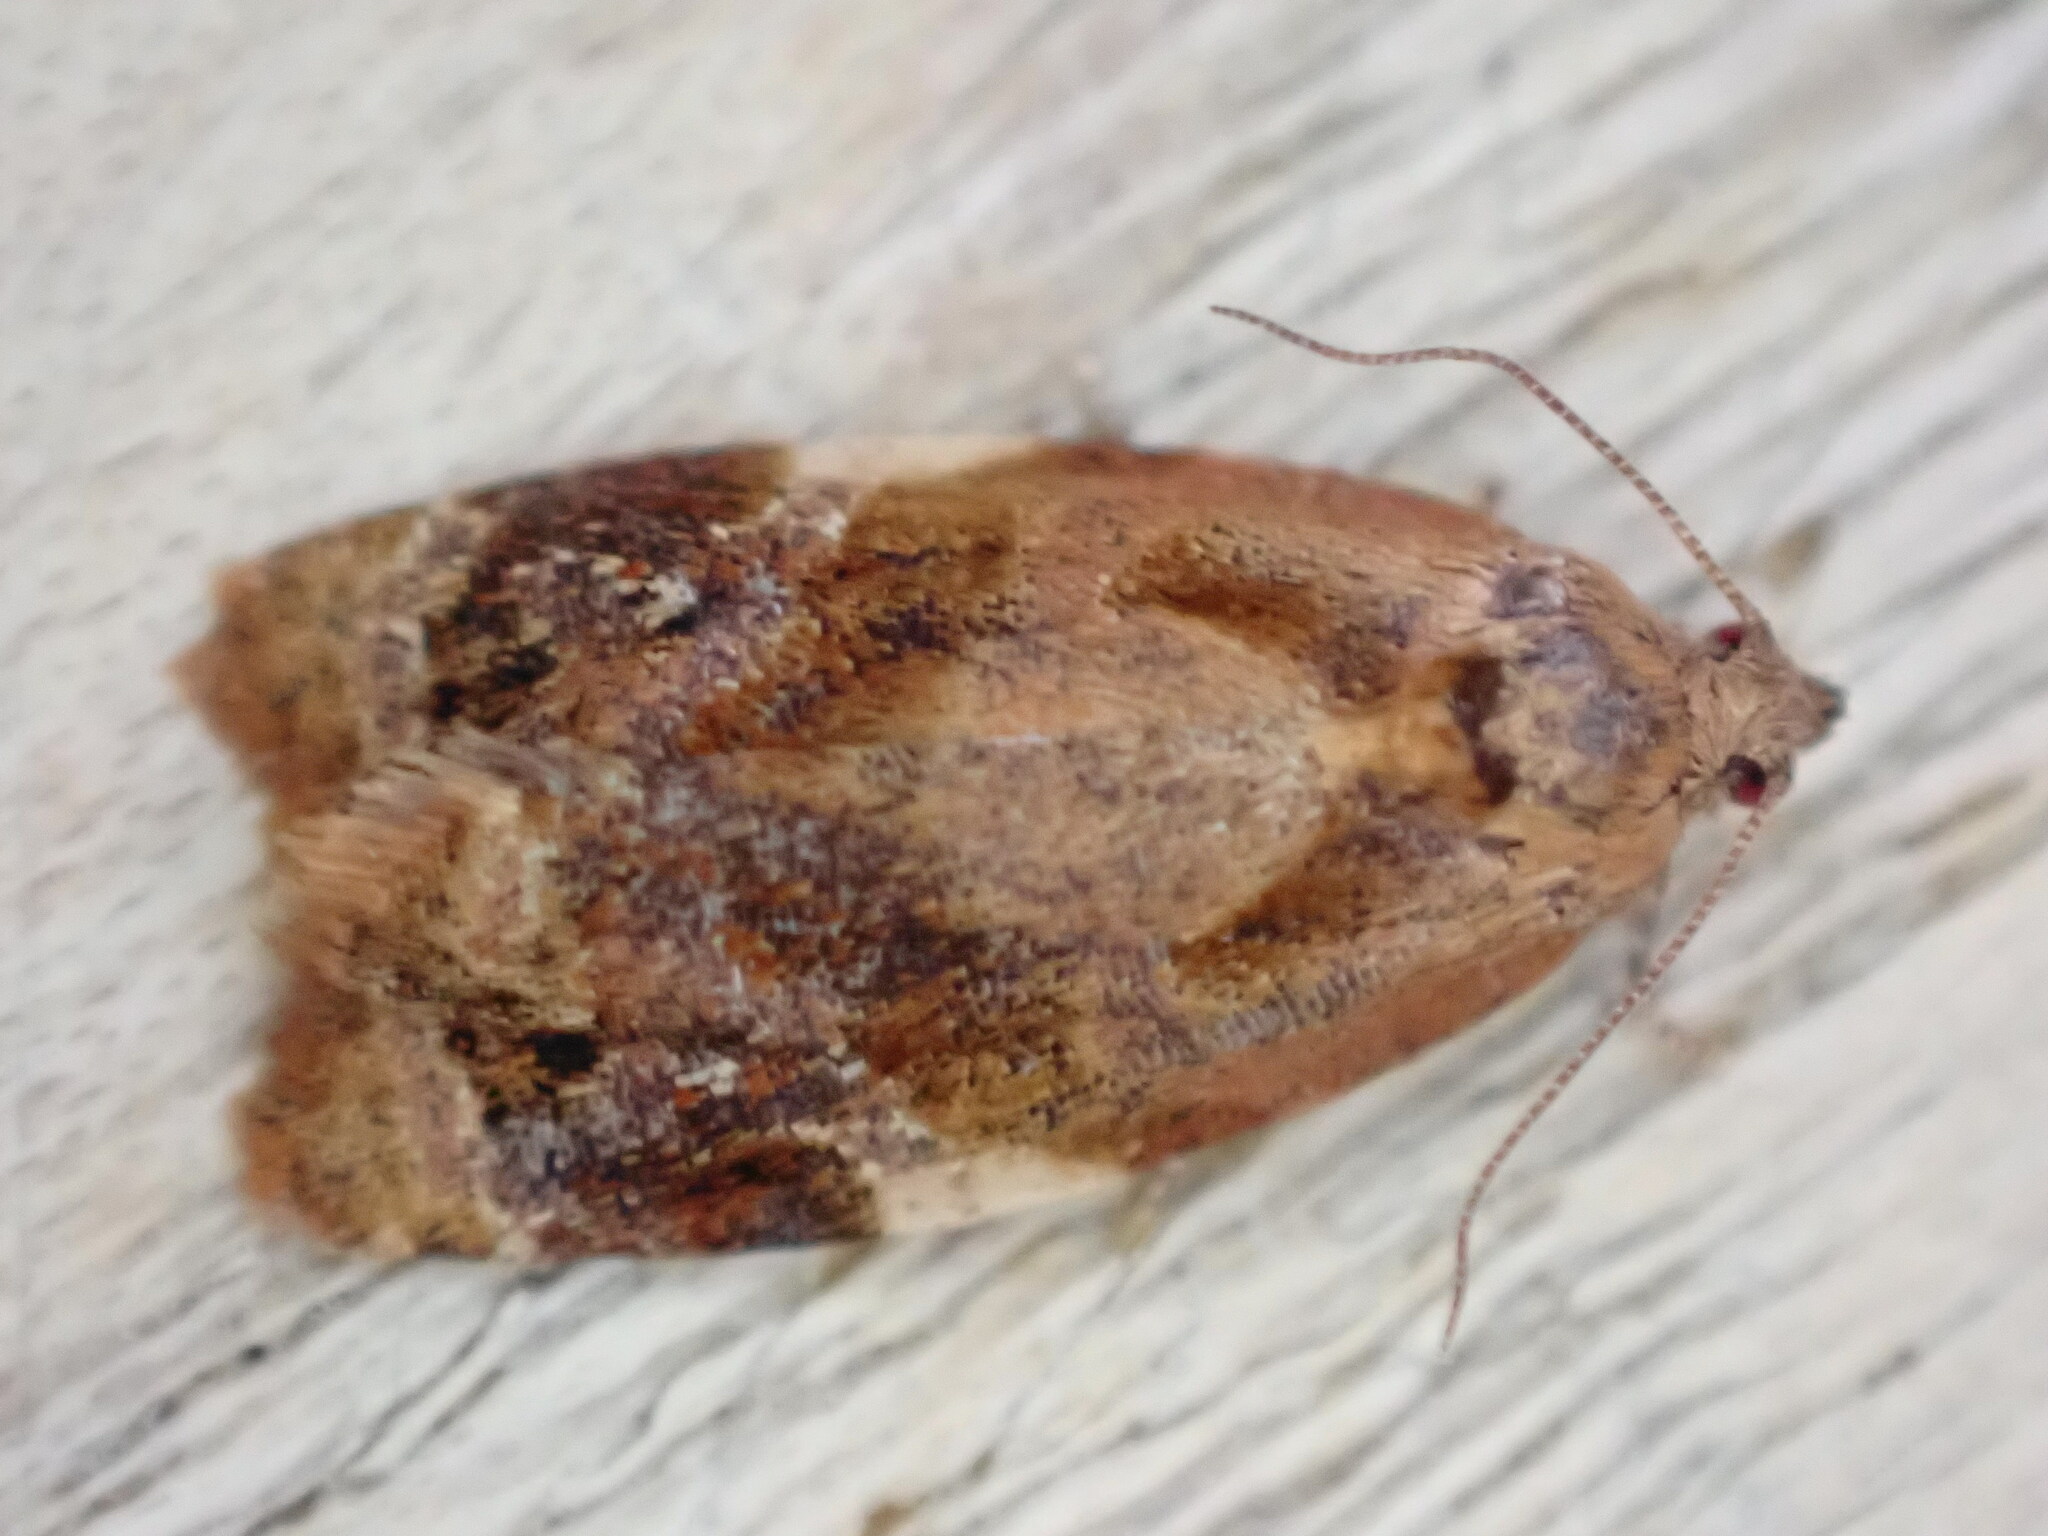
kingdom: Animalia
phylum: Arthropoda
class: Insecta
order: Lepidoptera
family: Tortricidae
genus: Ditula
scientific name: Ditula angustiorana
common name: Red-barred tortrix
